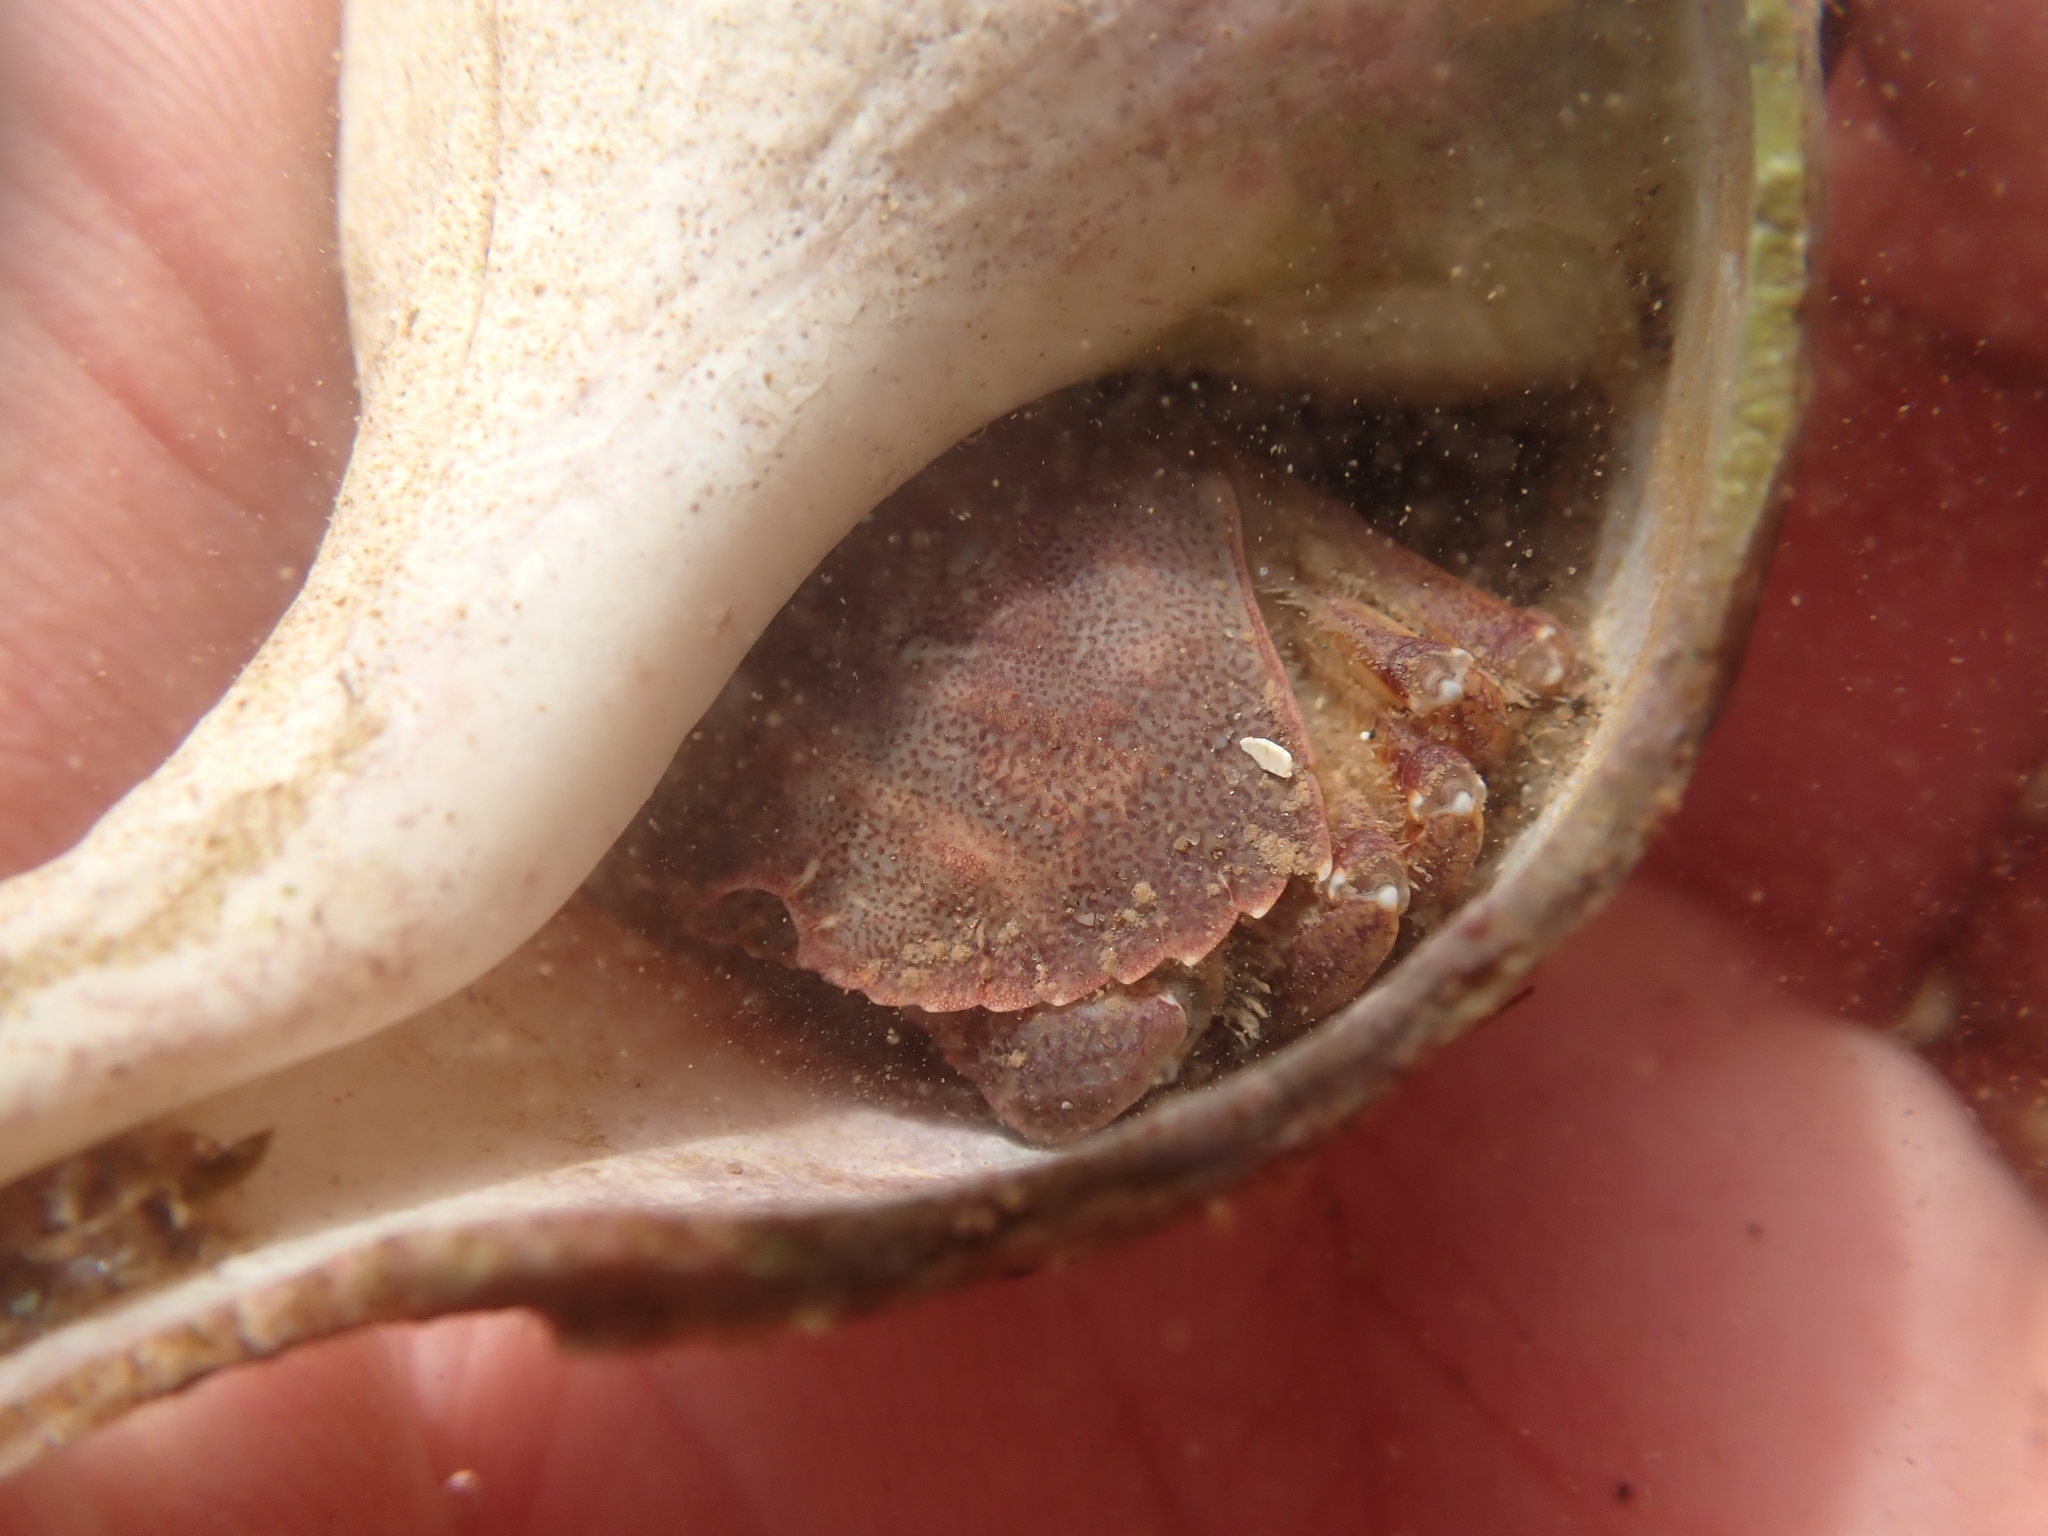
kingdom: Animalia
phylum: Arthropoda
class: Malacostraca
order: Decapoda
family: Cancridae
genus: Cancer
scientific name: Cancer irroratus
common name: Atlantic rock crab
